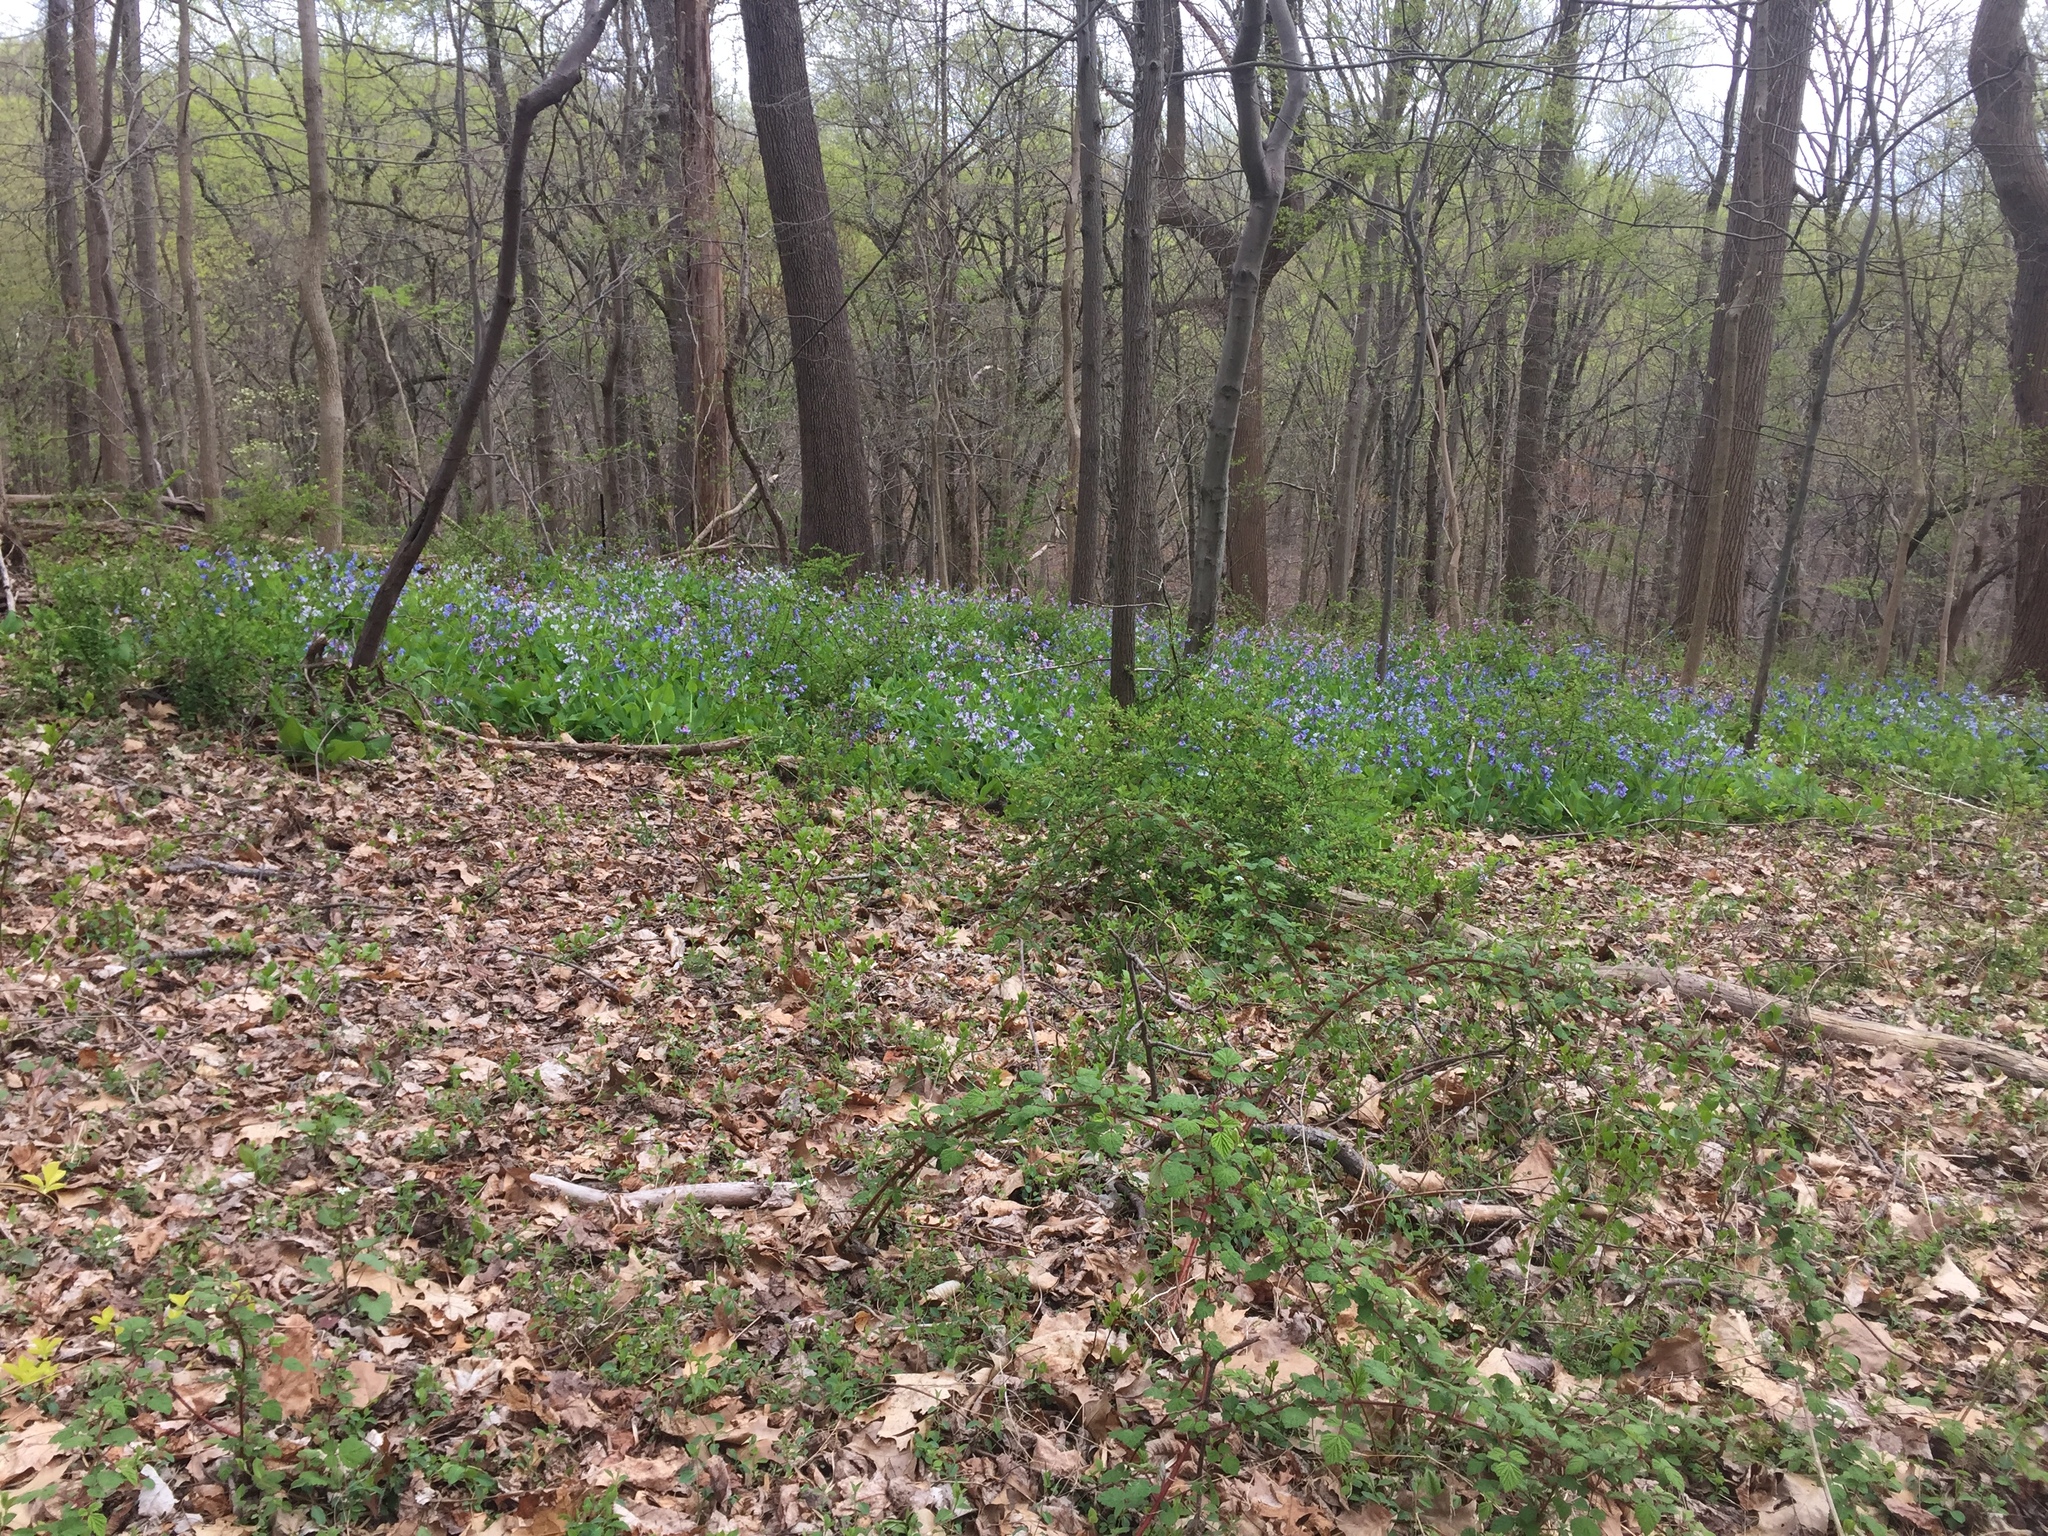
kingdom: Plantae
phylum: Tracheophyta
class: Magnoliopsida
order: Boraginales
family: Boraginaceae
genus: Mertensia
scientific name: Mertensia virginica
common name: Virginia bluebells
